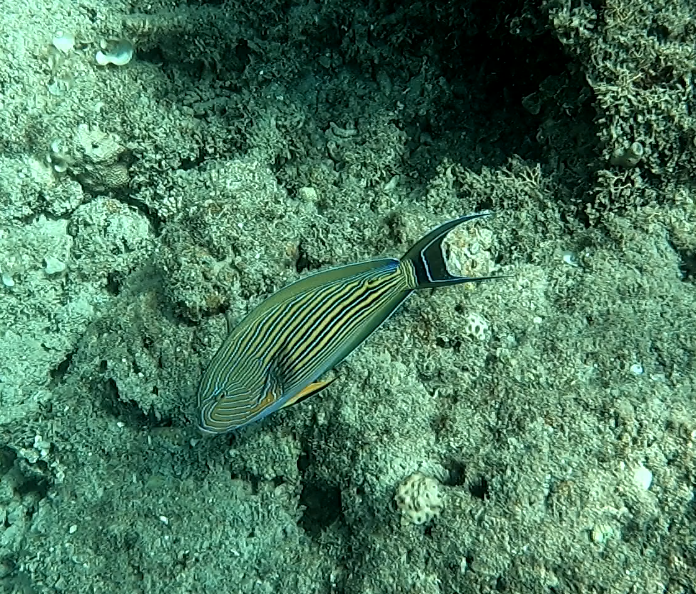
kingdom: Animalia
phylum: Chordata
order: Perciformes
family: Acanthuridae
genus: Acanthurus
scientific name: Acanthurus lineatus
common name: Striped surgeonfish
